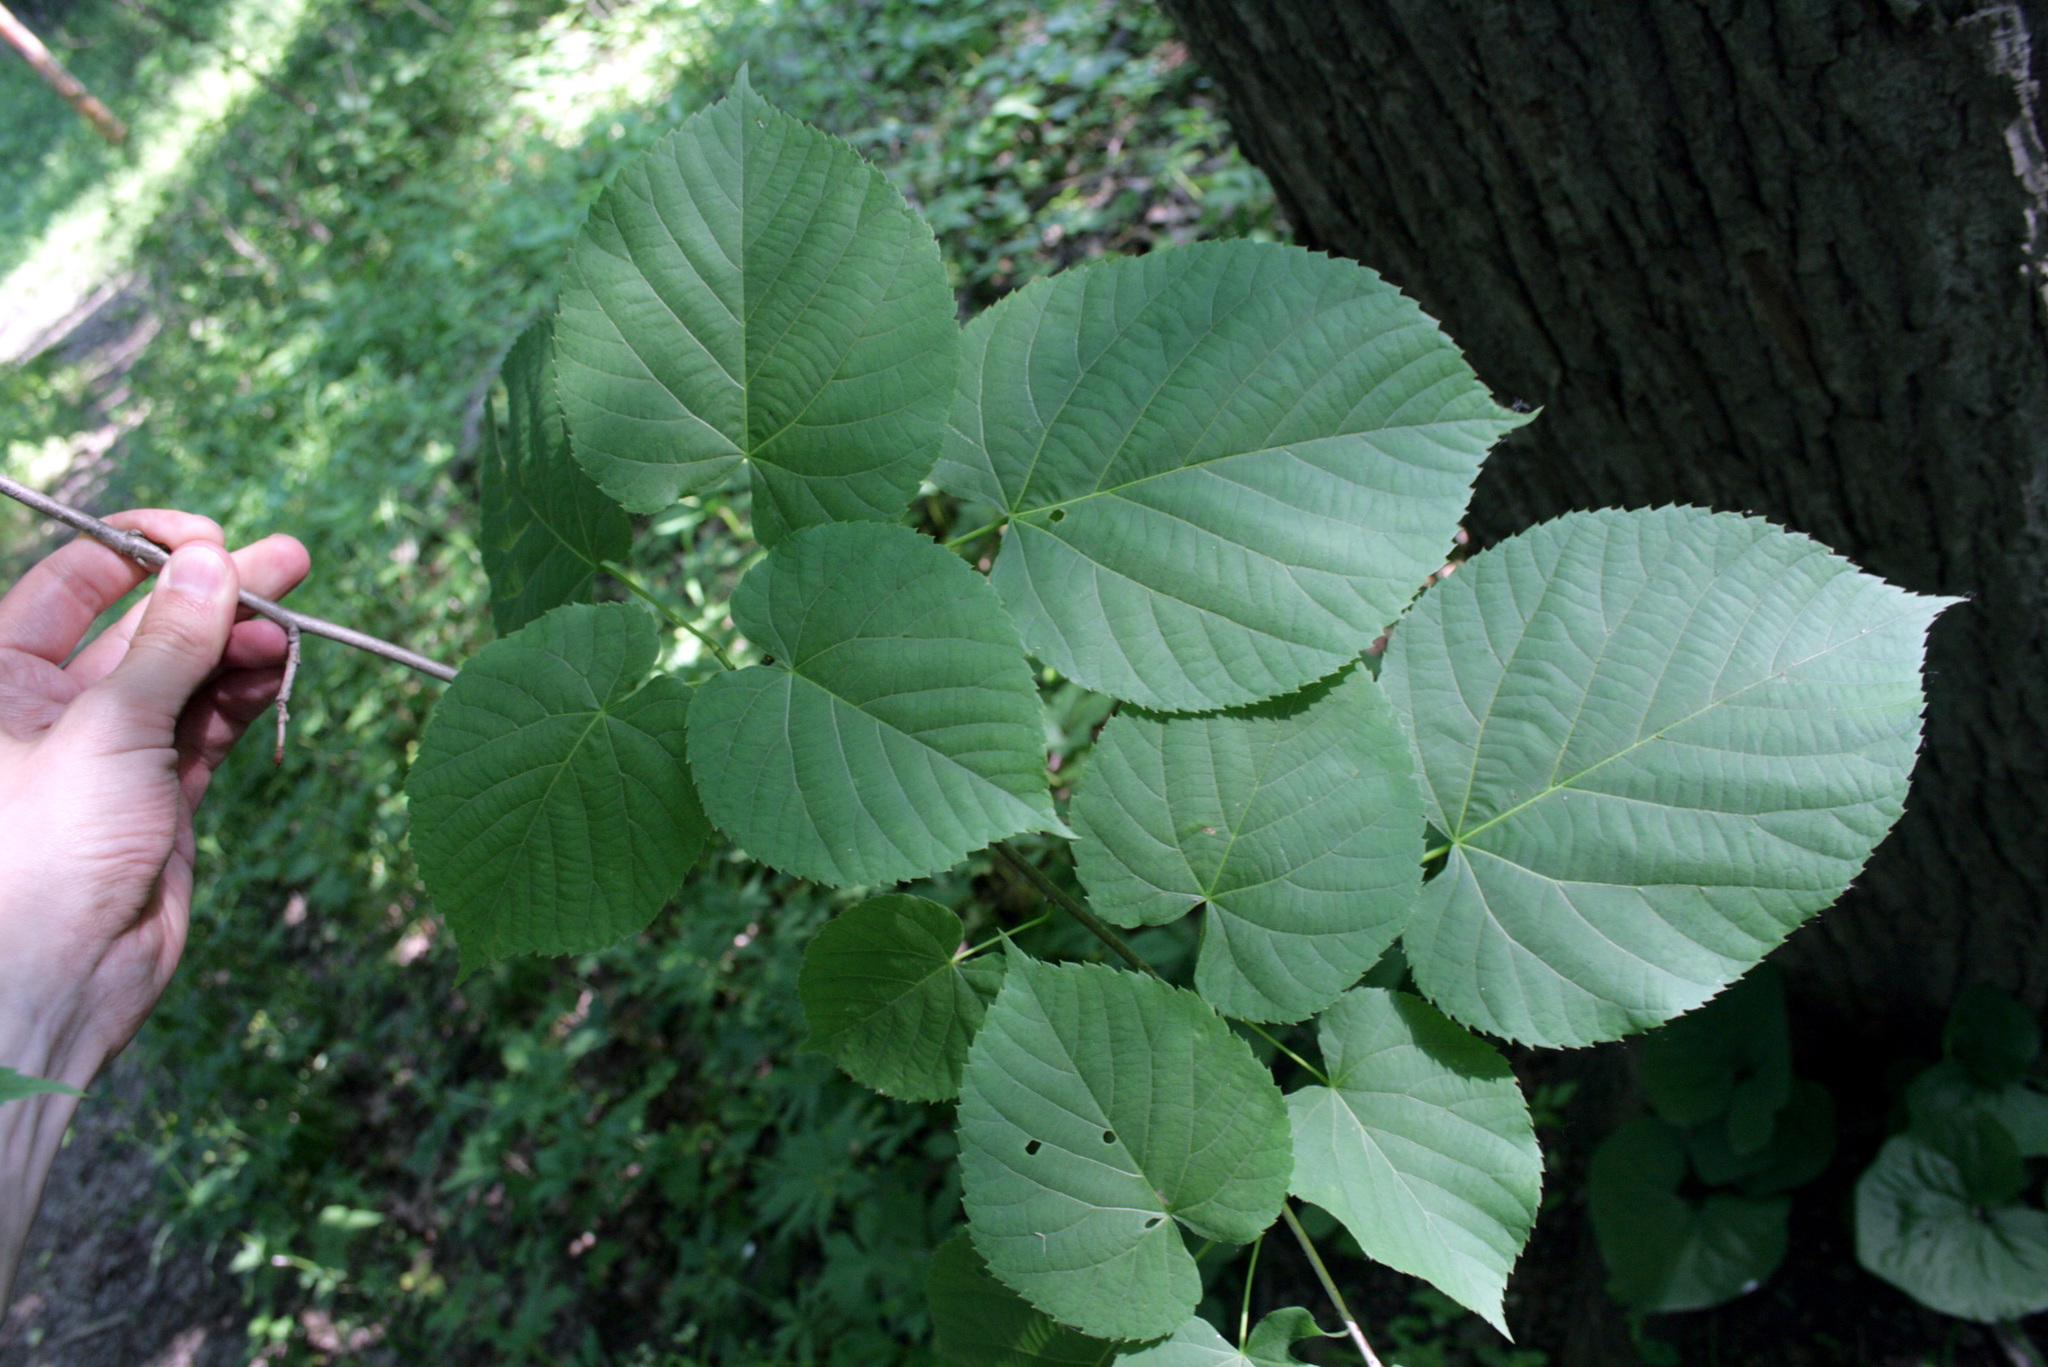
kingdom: Plantae
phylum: Tracheophyta
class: Magnoliopsida
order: Malvales
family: Malvaceae
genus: Tilia
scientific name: Tilia americana
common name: Basswood
